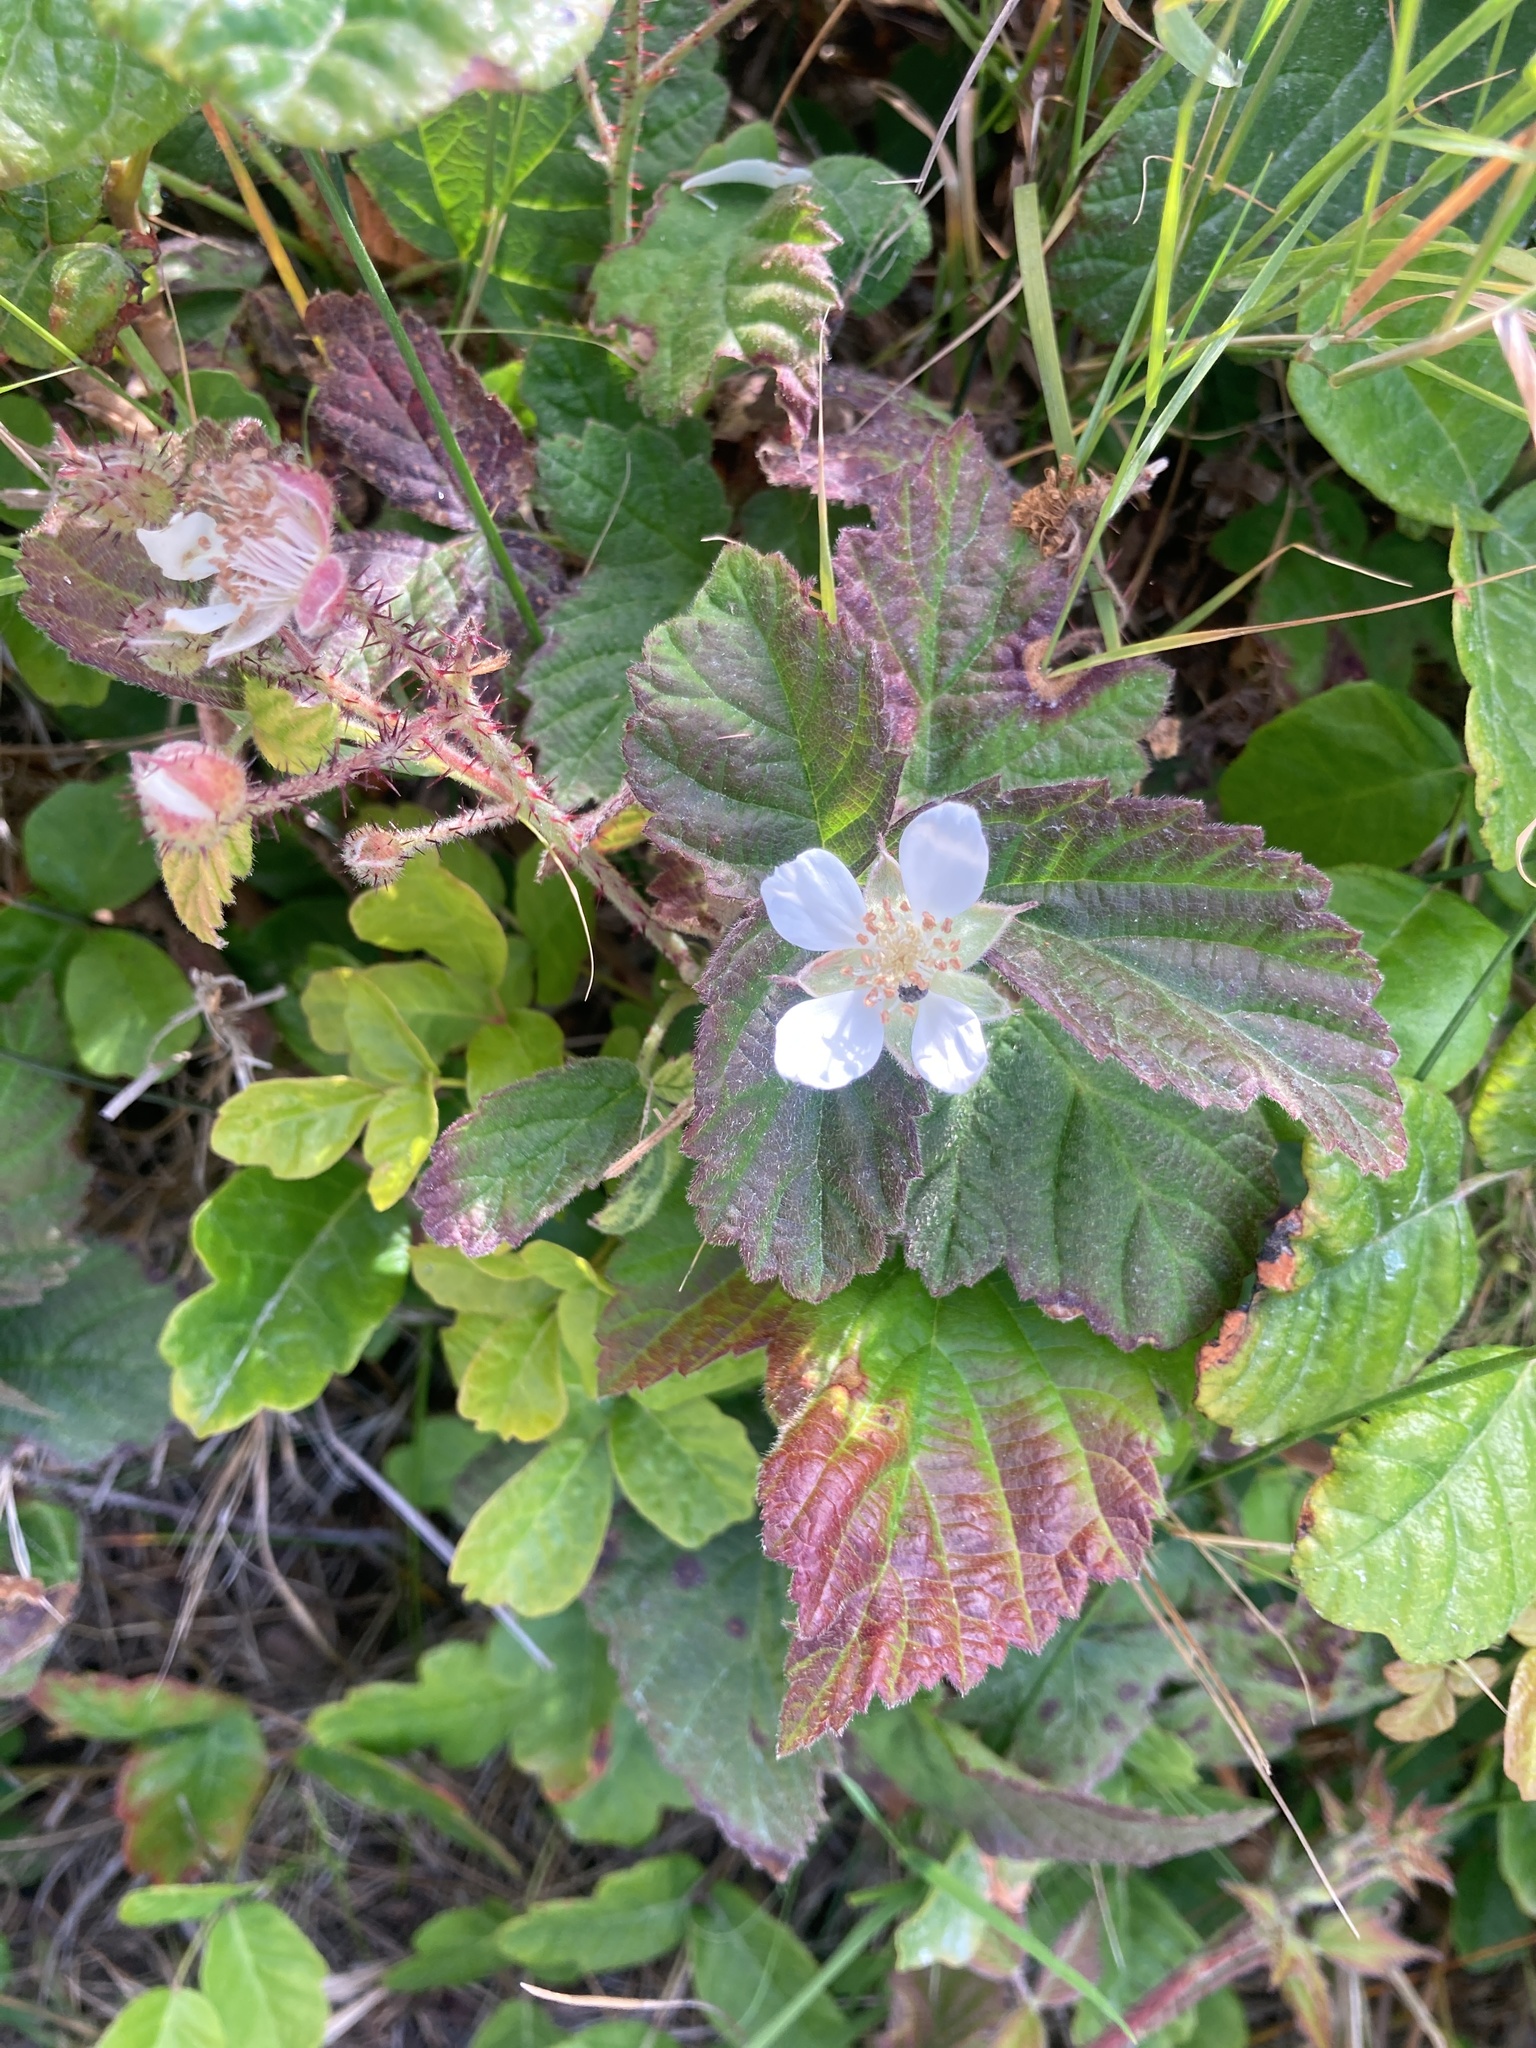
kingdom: Plantae
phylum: Tracheophyta
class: Magnoliopsida
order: Rosales
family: Rosaceae
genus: Rubus
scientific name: Rubus ursinus
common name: Pacific blackberry
